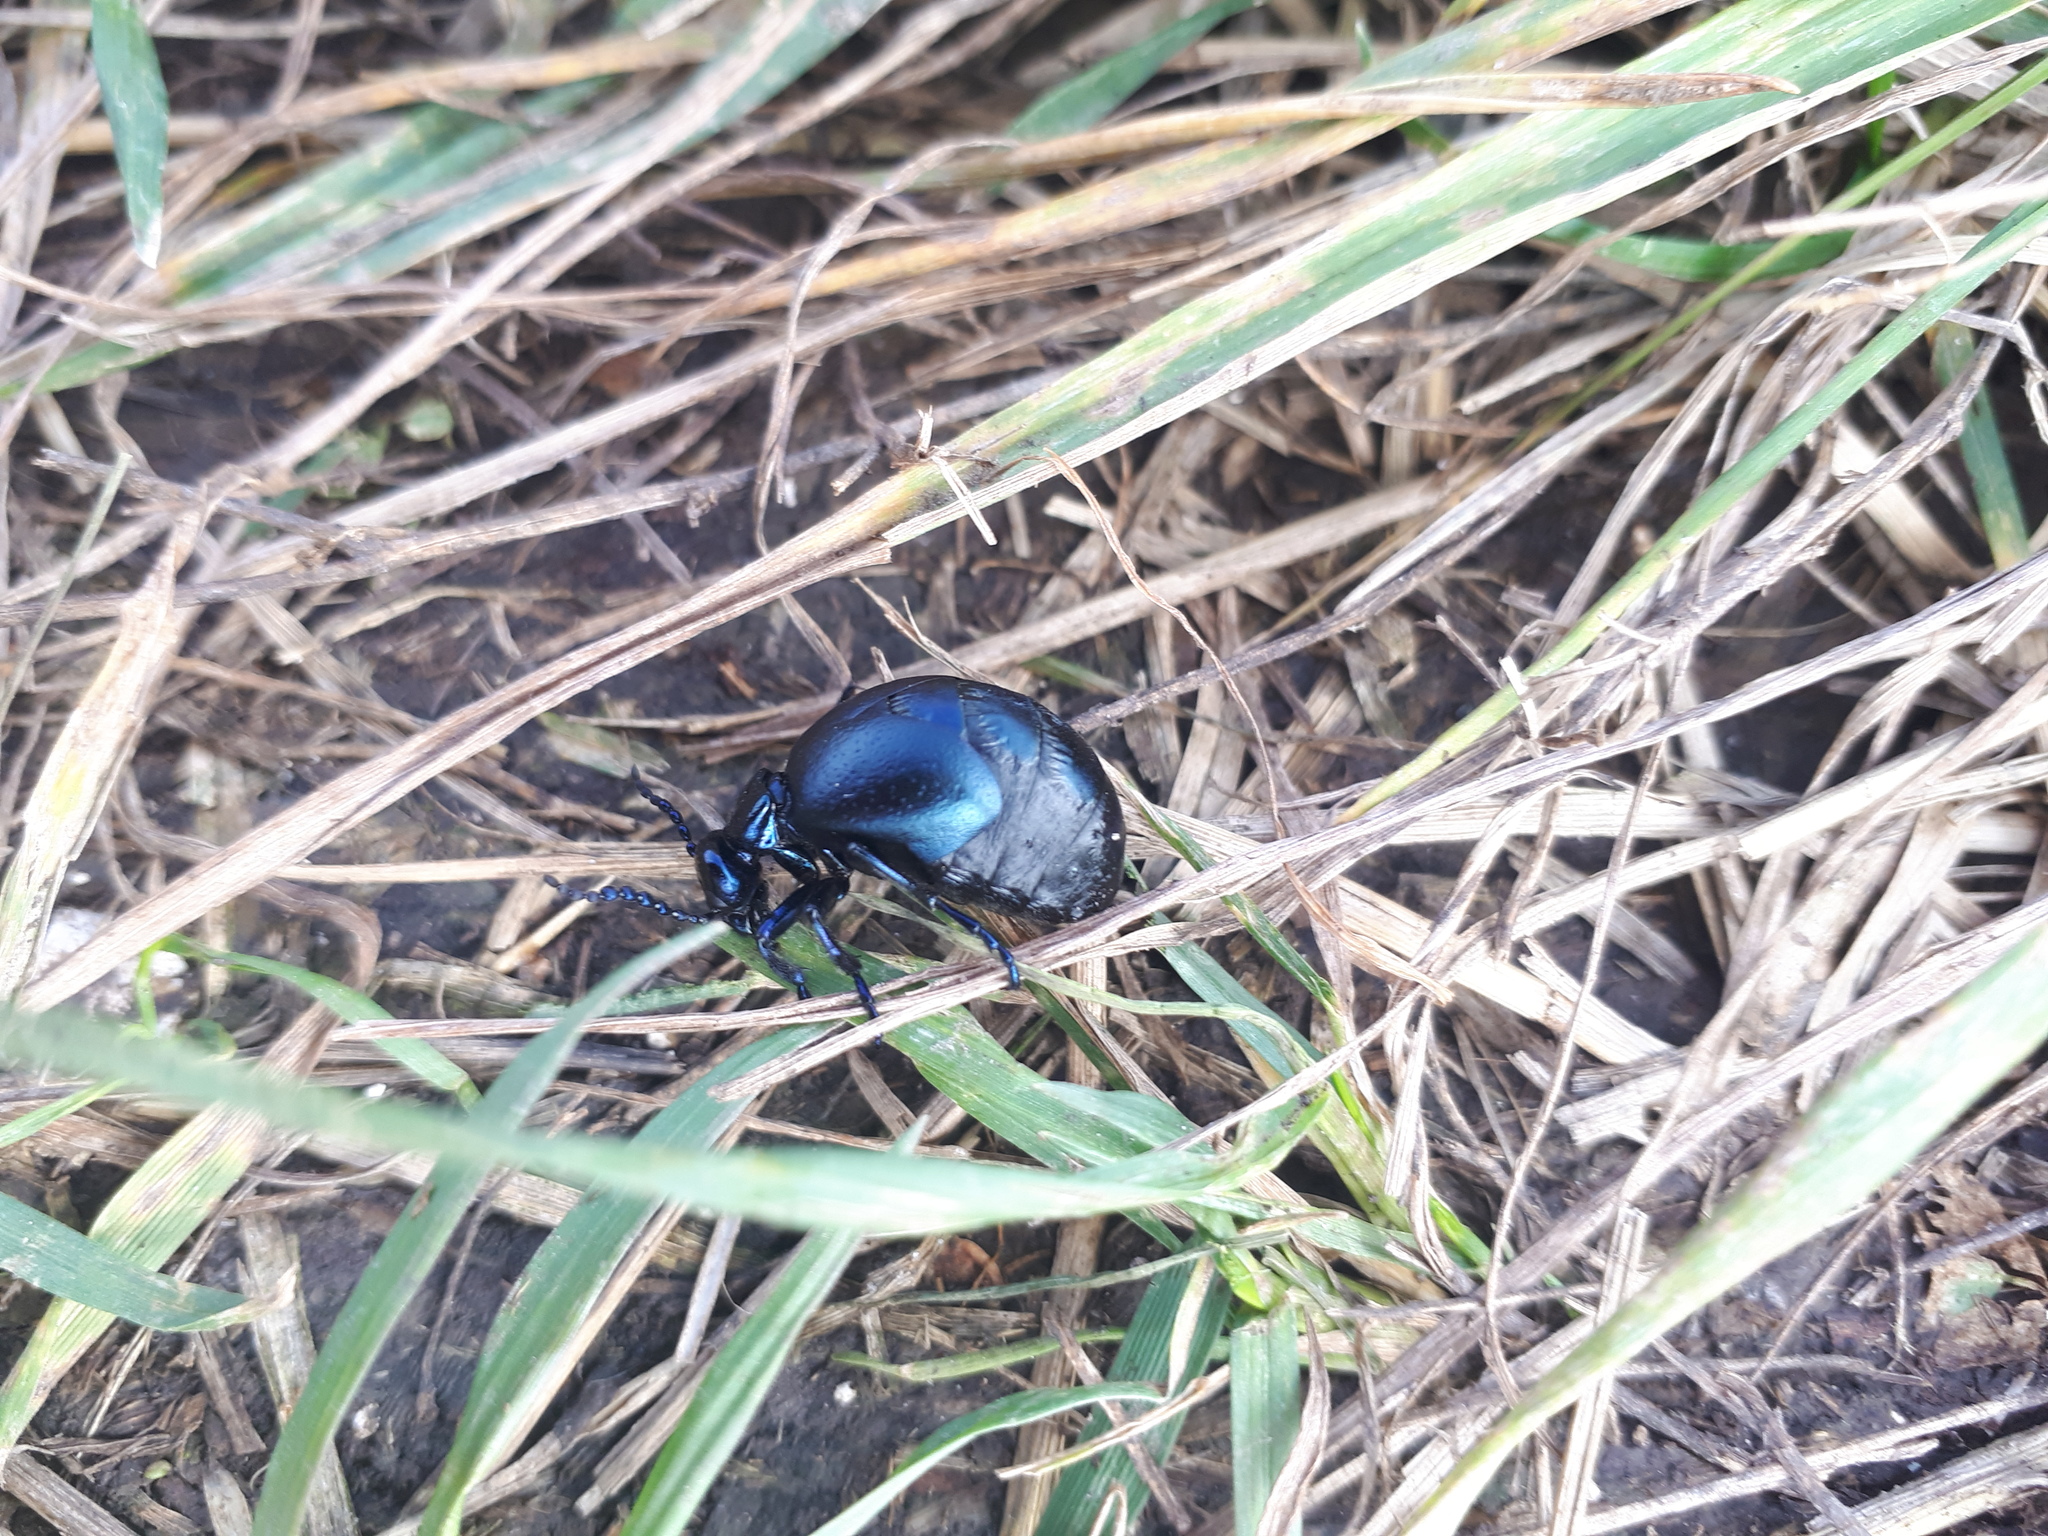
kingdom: Animalia
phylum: Arthropoda
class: Insecta
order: Coleoptera
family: Meloidae
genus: Meloe
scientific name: Meloe autumnalis
